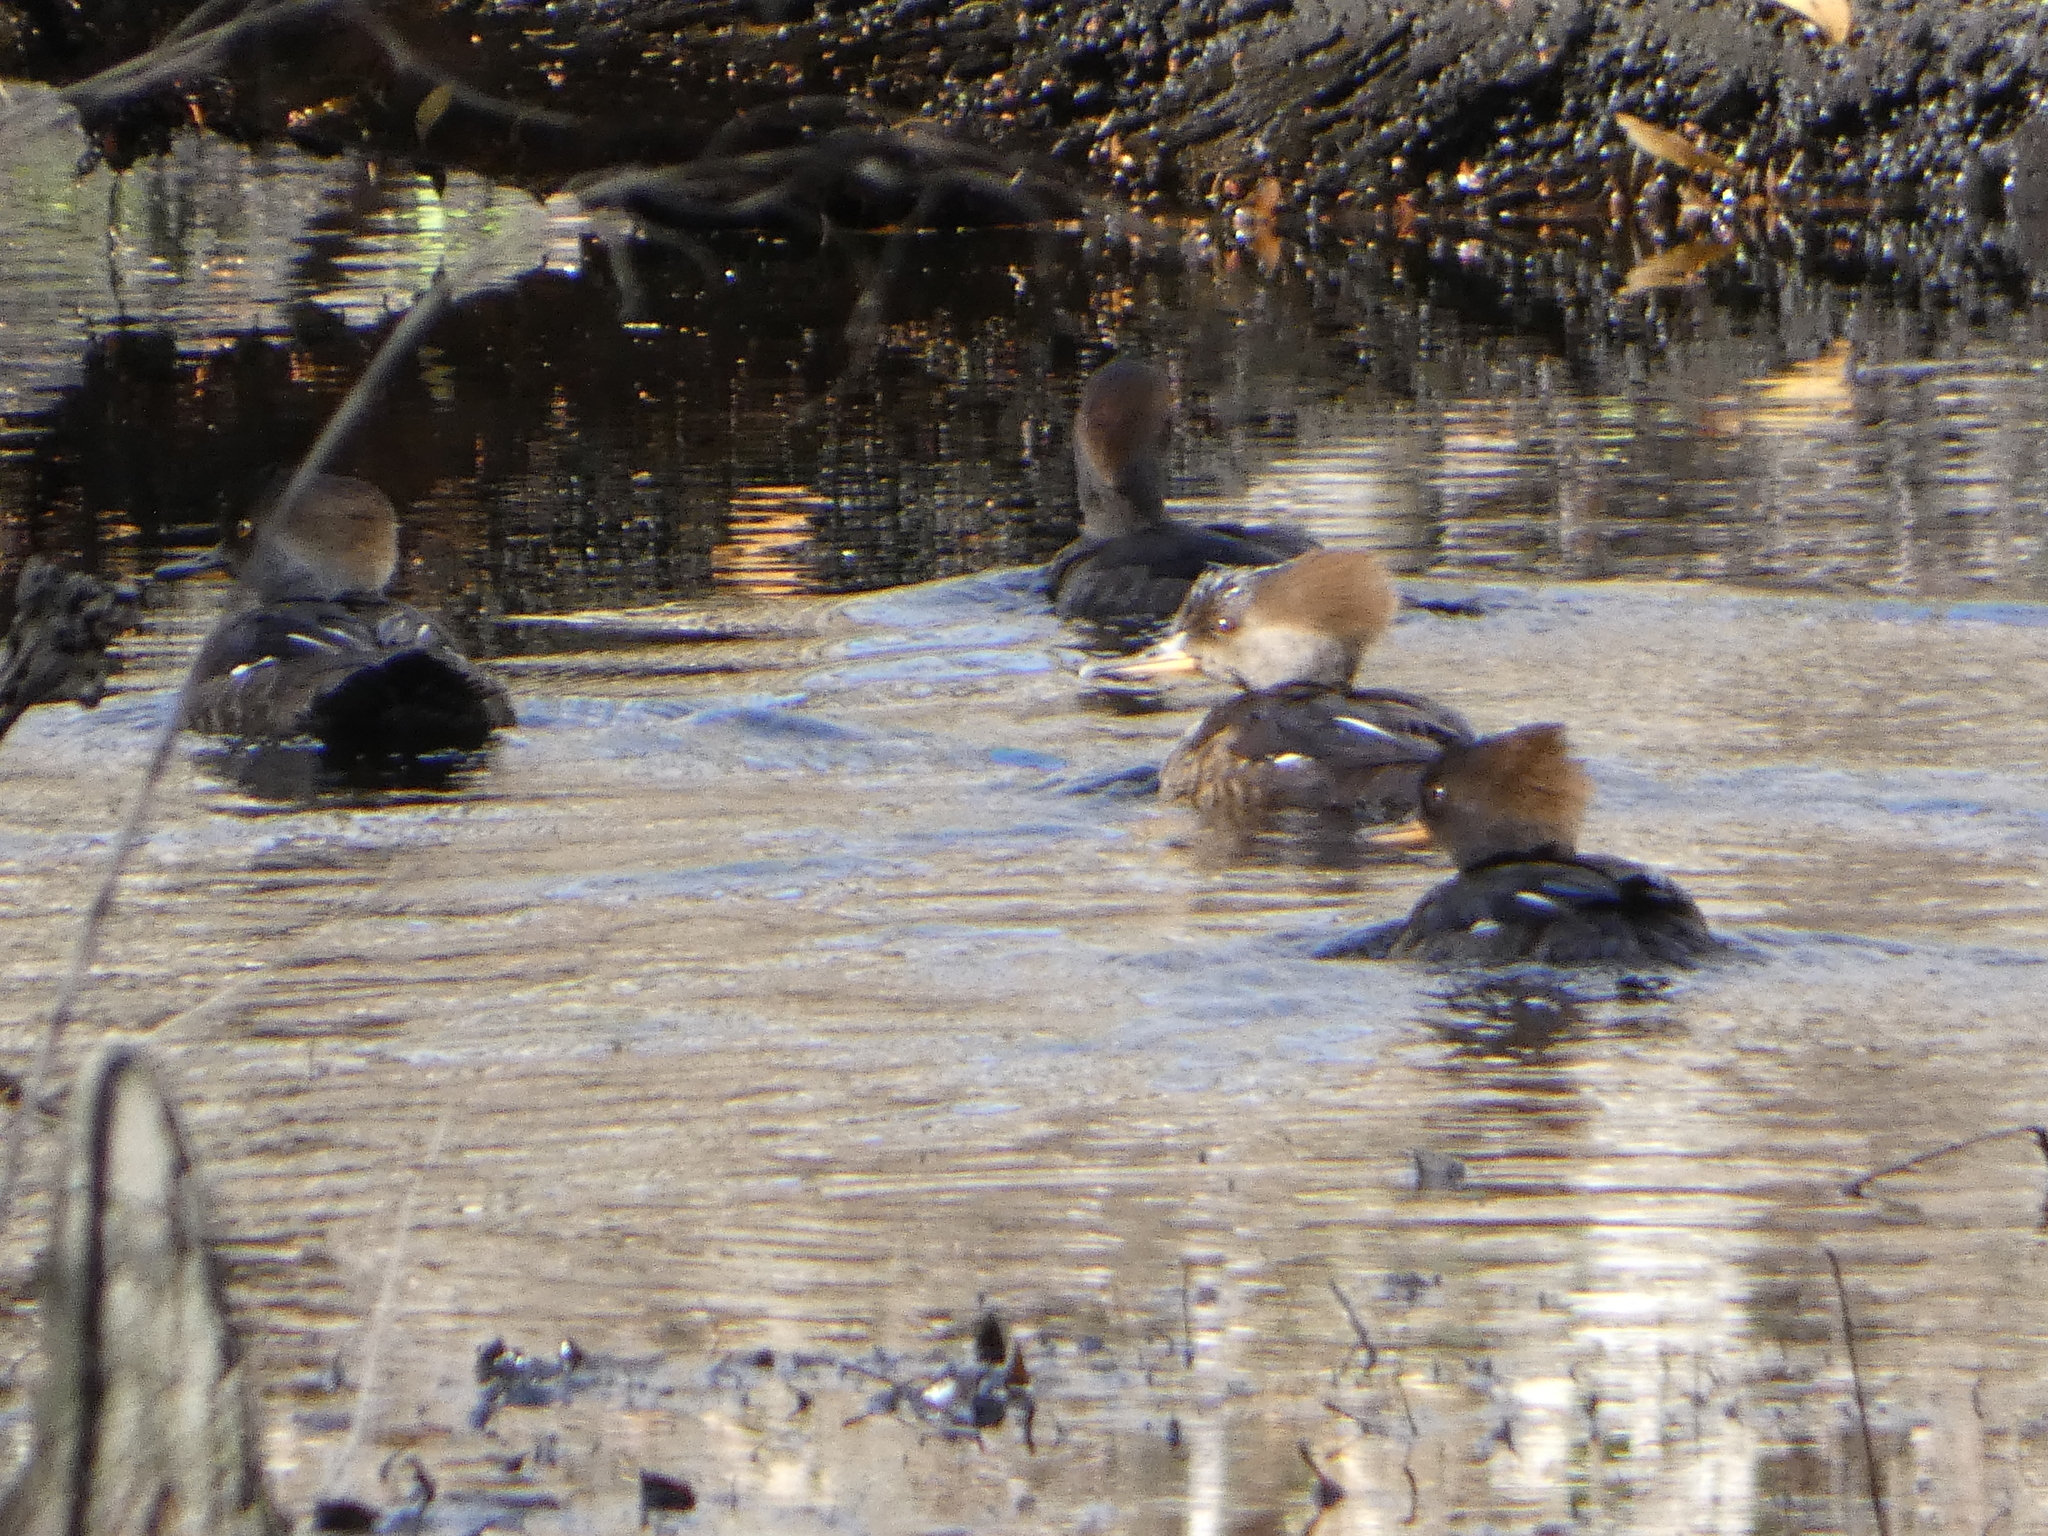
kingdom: Animalia
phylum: Chordata
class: Aves
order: Anseriformes
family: Anatidae
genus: Lophodytes
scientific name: Lophodytes cucullatus
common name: Hooded merganser
